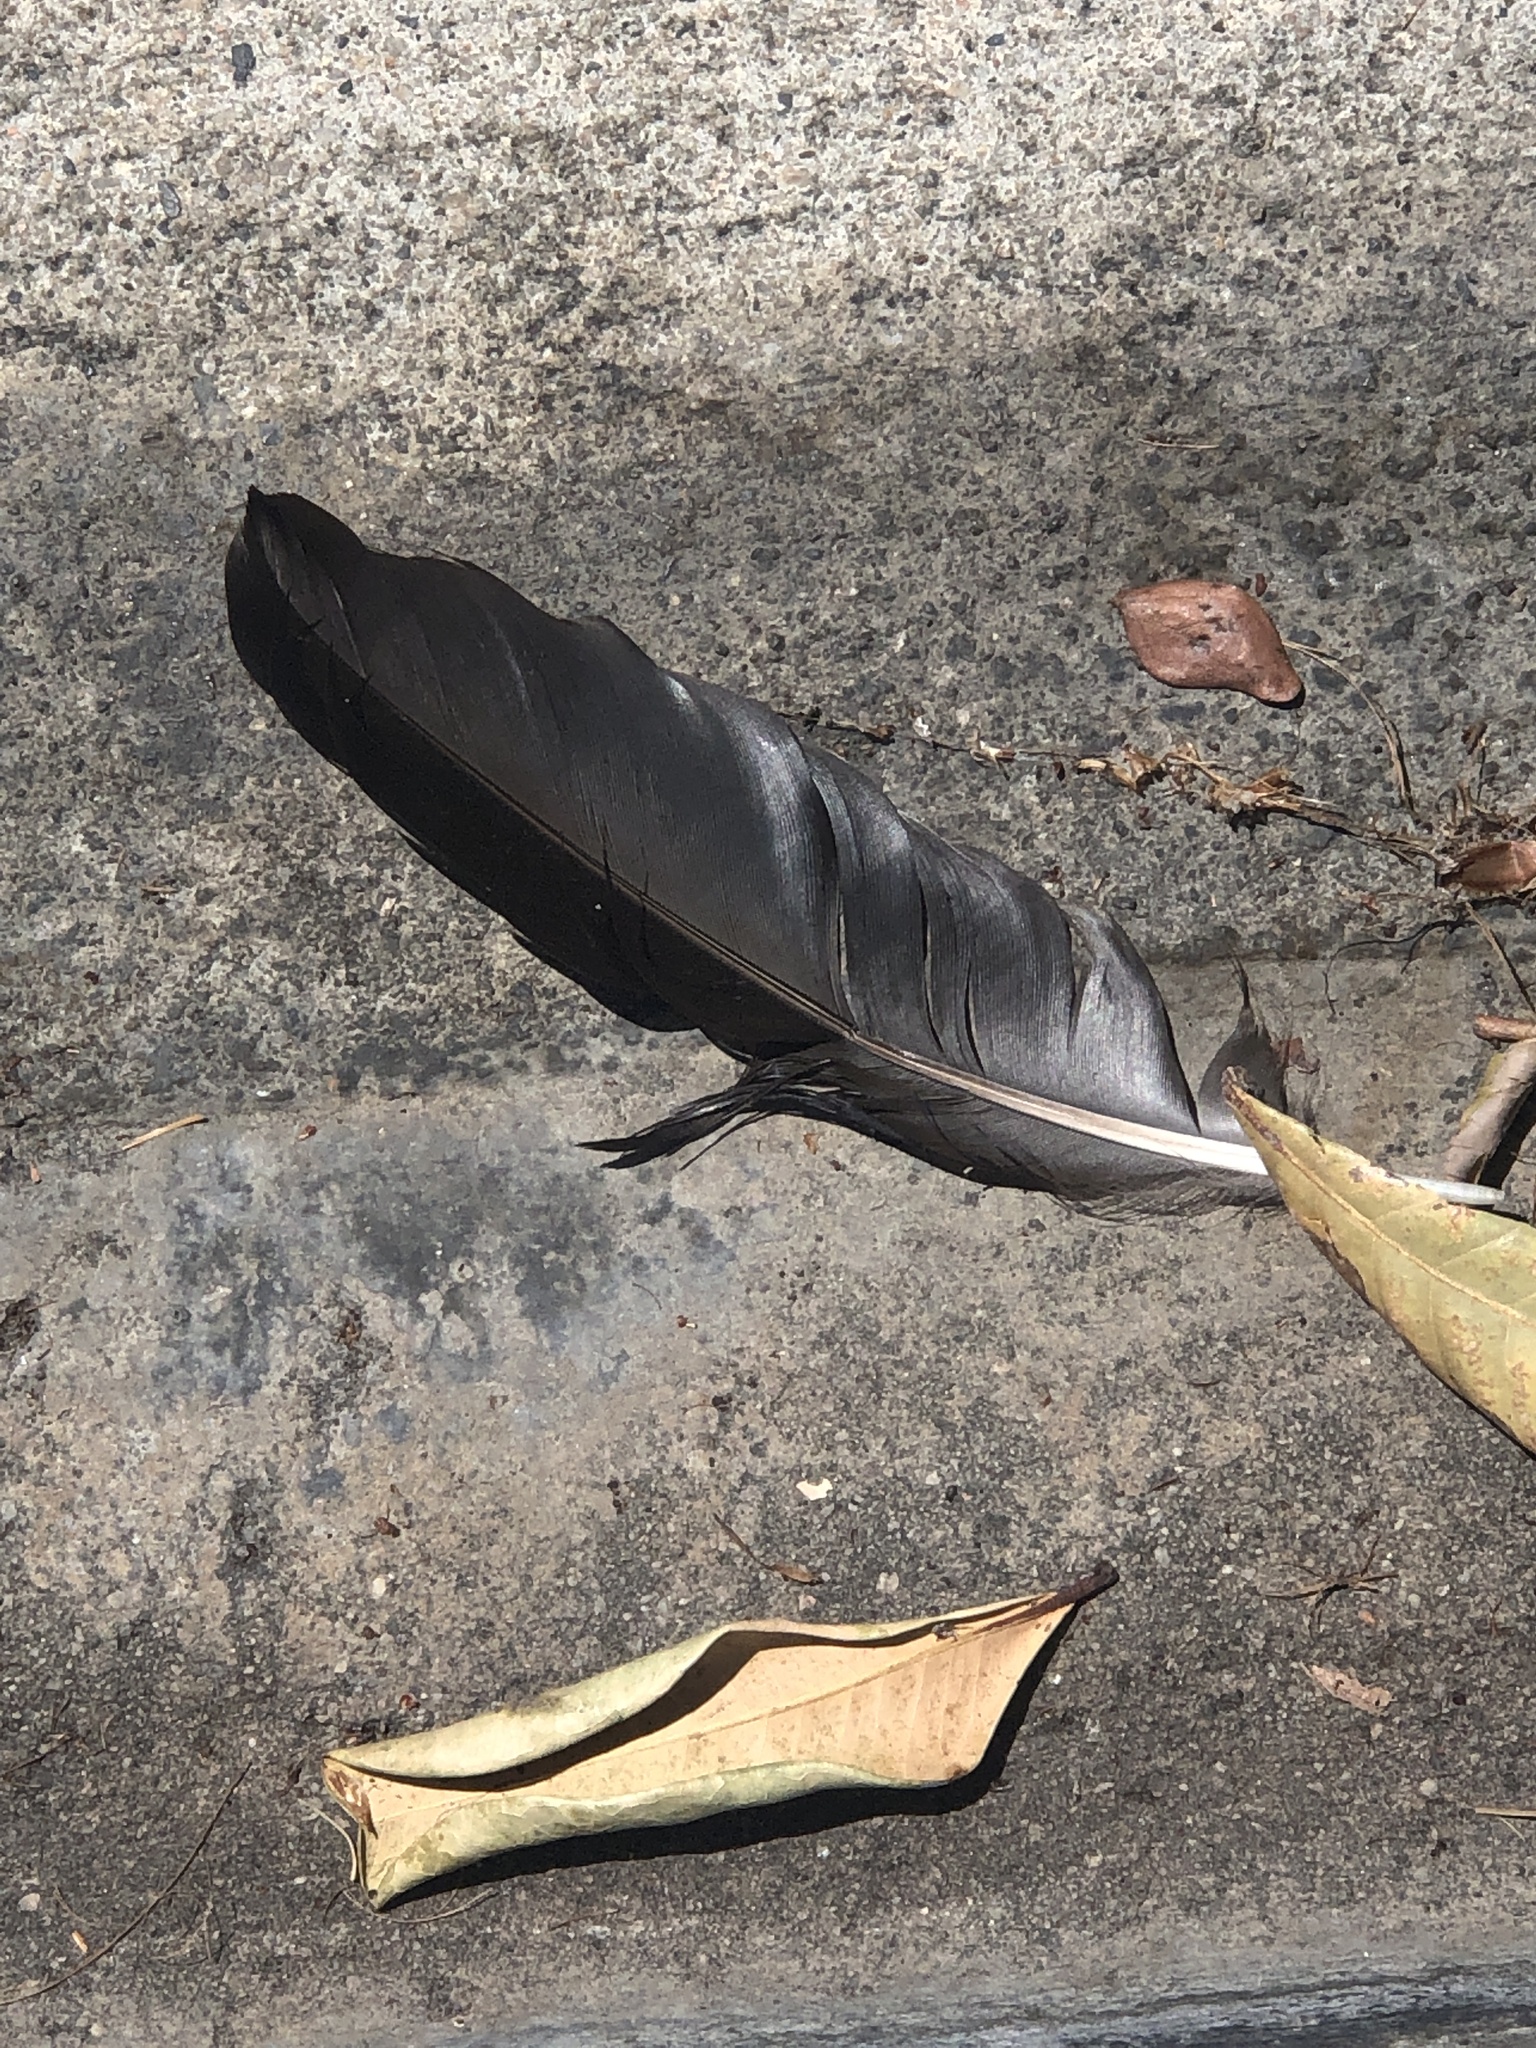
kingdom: Animalia
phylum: Chordata
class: Aves
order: Passeriformes
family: Corvidae
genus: Corvus
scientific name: Corvus
